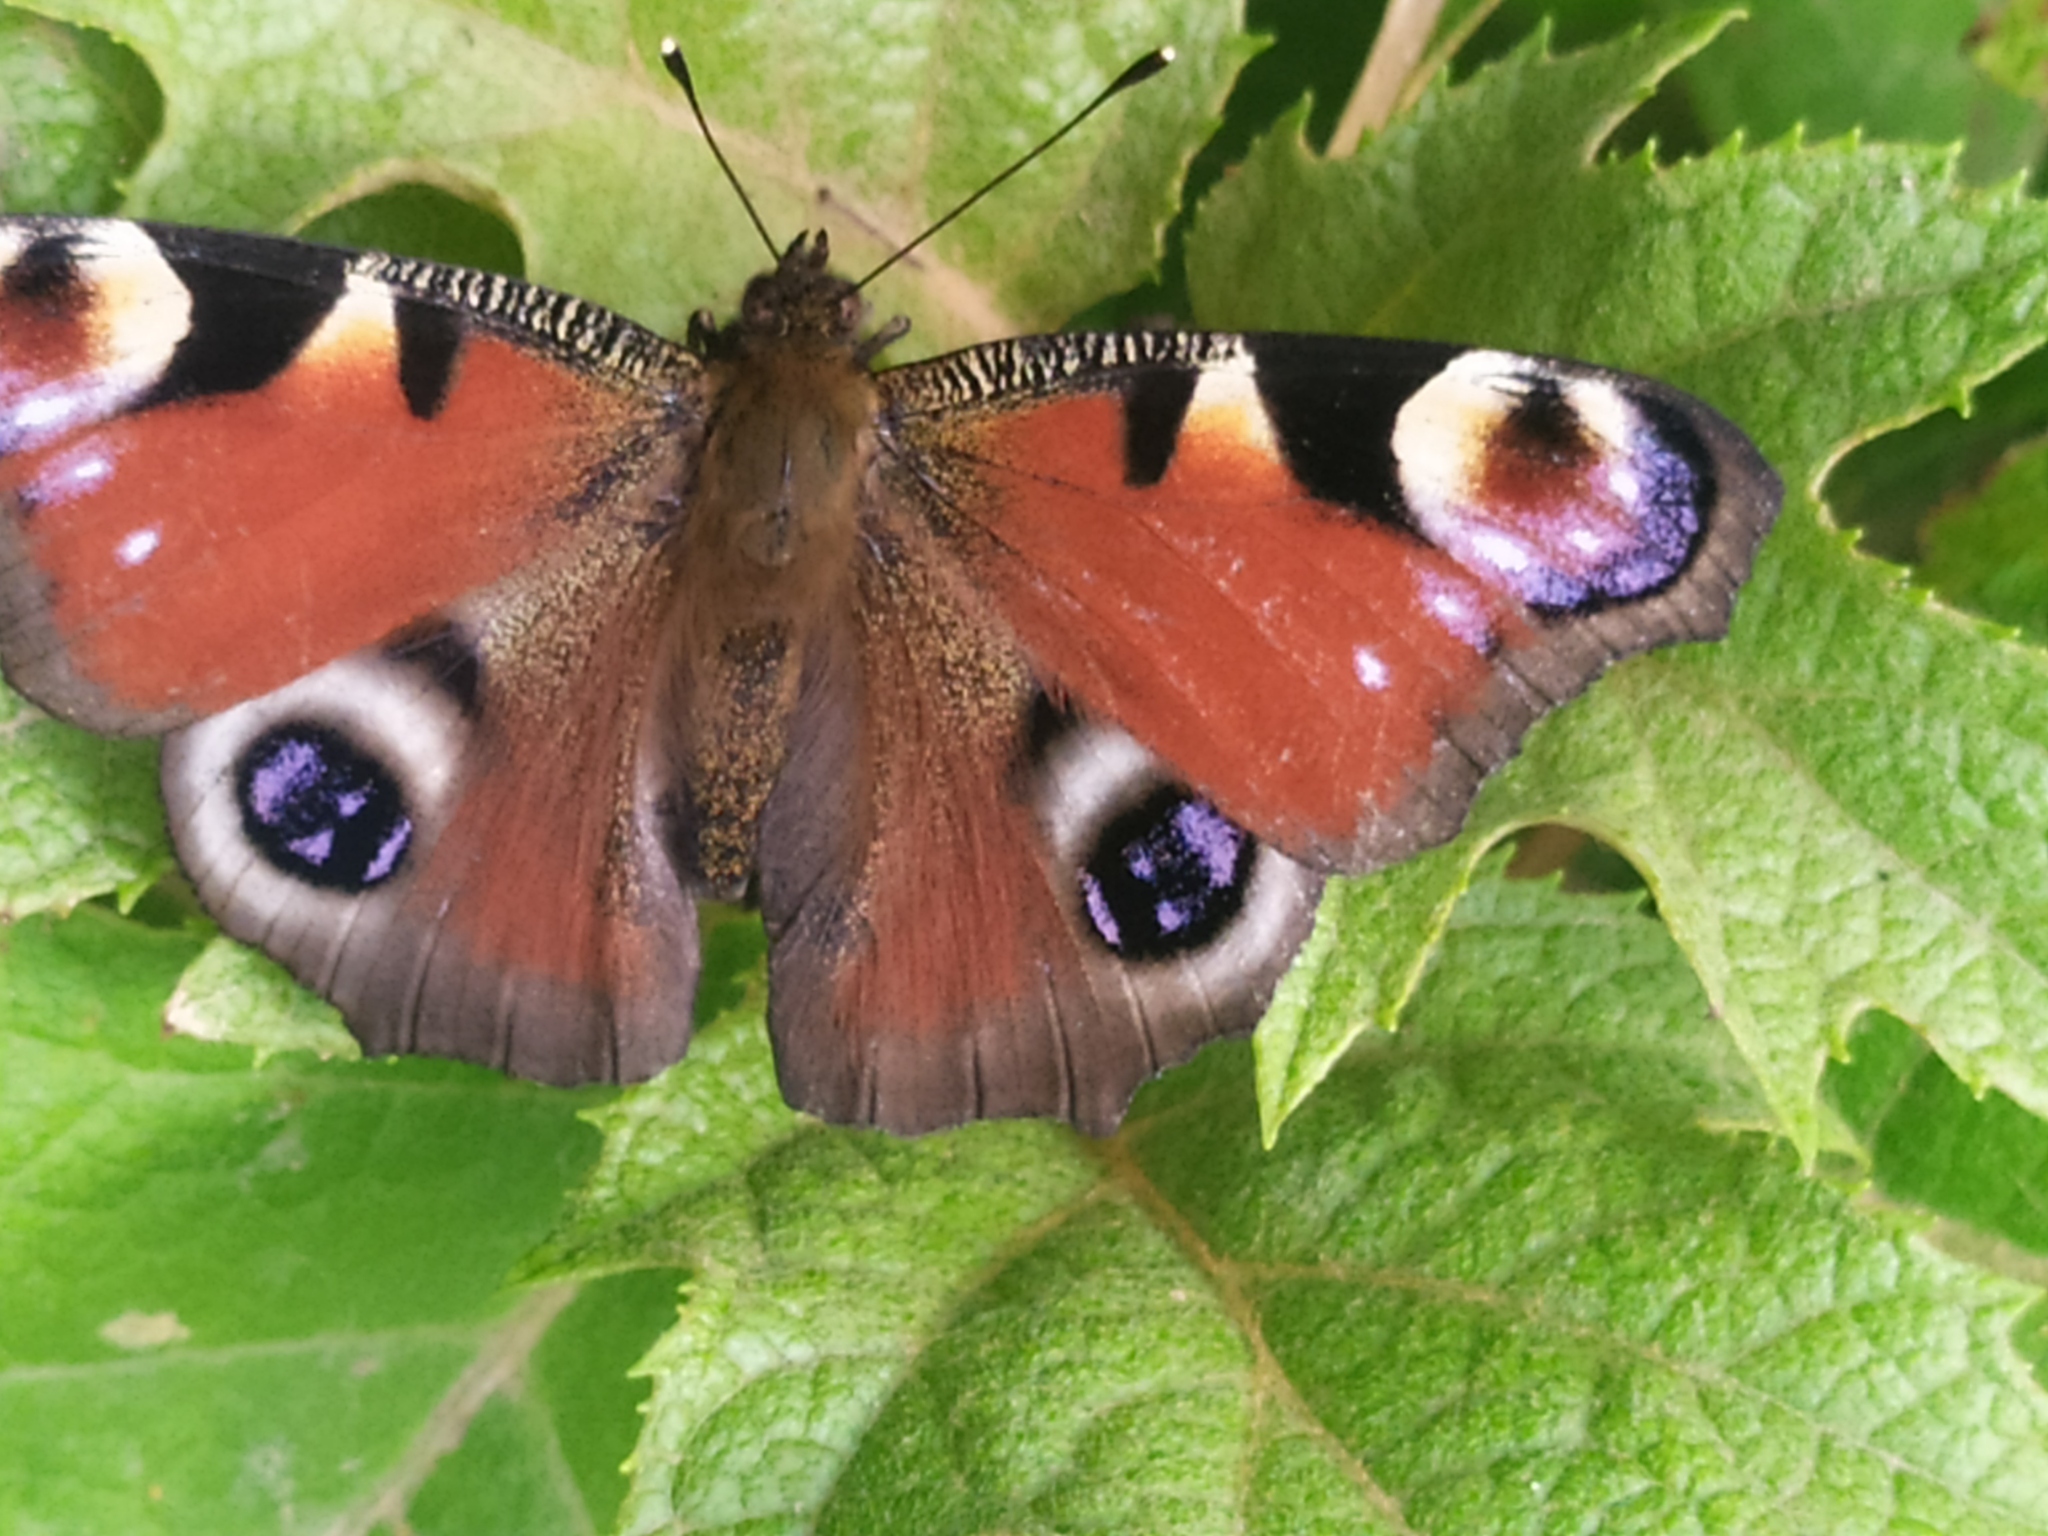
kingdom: Animalia
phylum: Arthropoda
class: Insecta
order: Lepidoptera
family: Nymphalidae
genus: Aglais
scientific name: Aglais io
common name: Peacock
